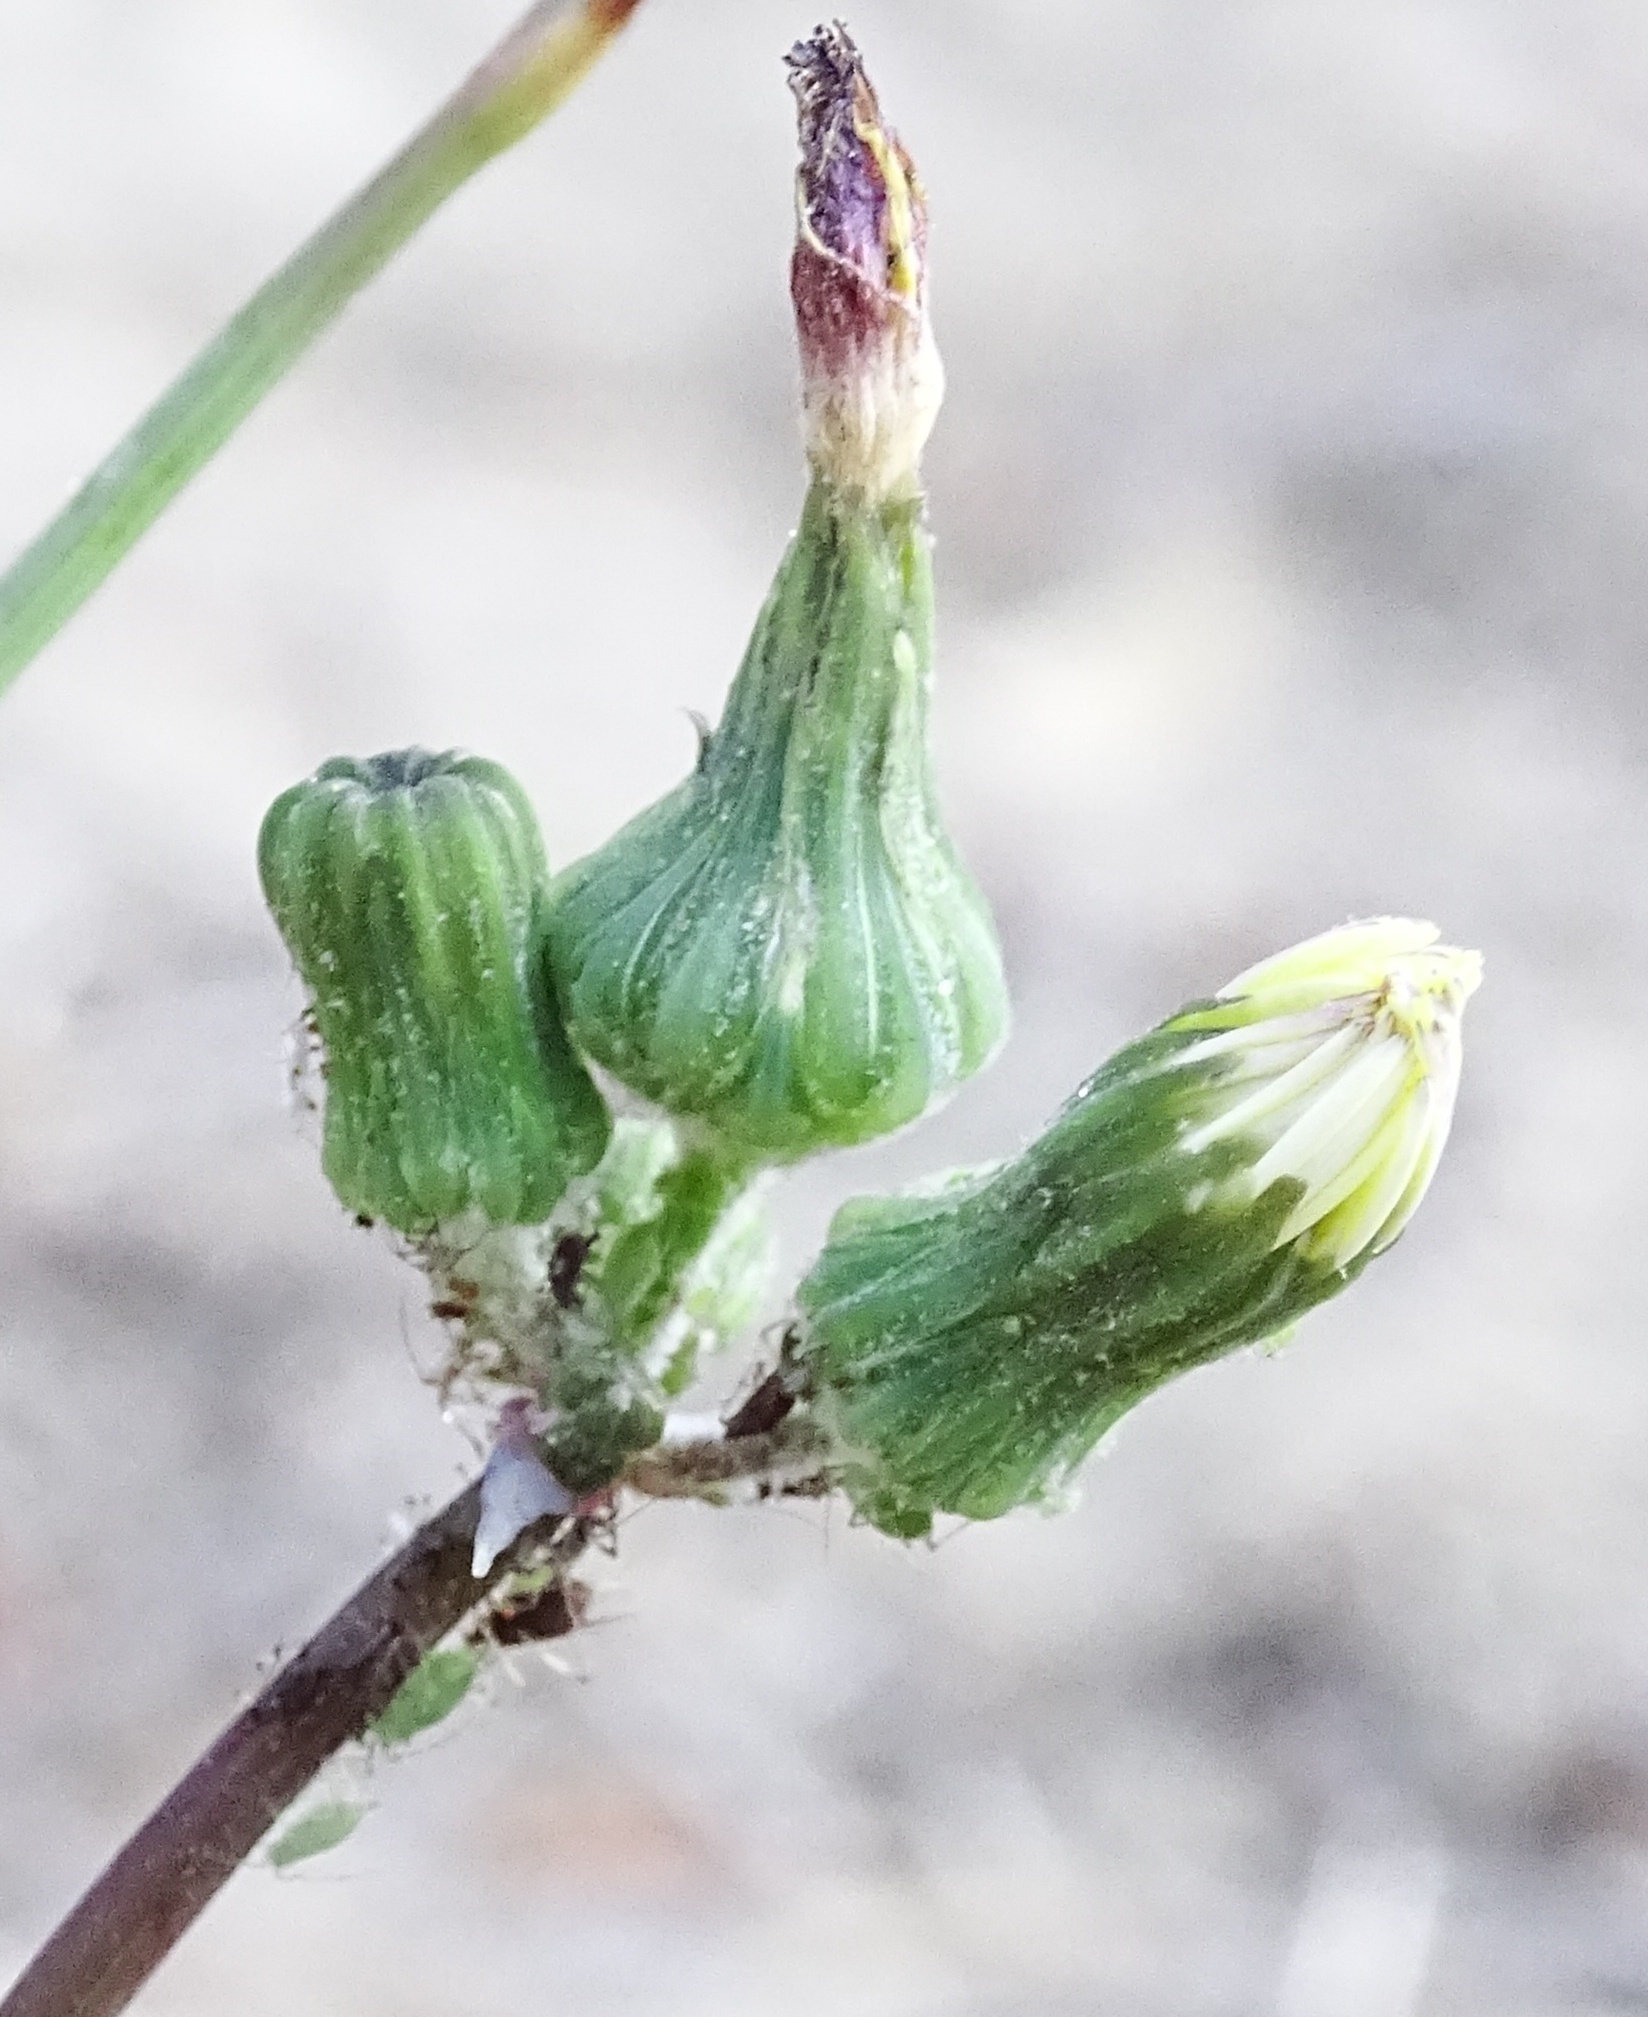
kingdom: Plantae
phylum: Tracheophyta
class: Magnoliopsida
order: Asterales
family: Asteraceae
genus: Sonchus
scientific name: Sonchus oleraceus
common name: Common sowthistle
